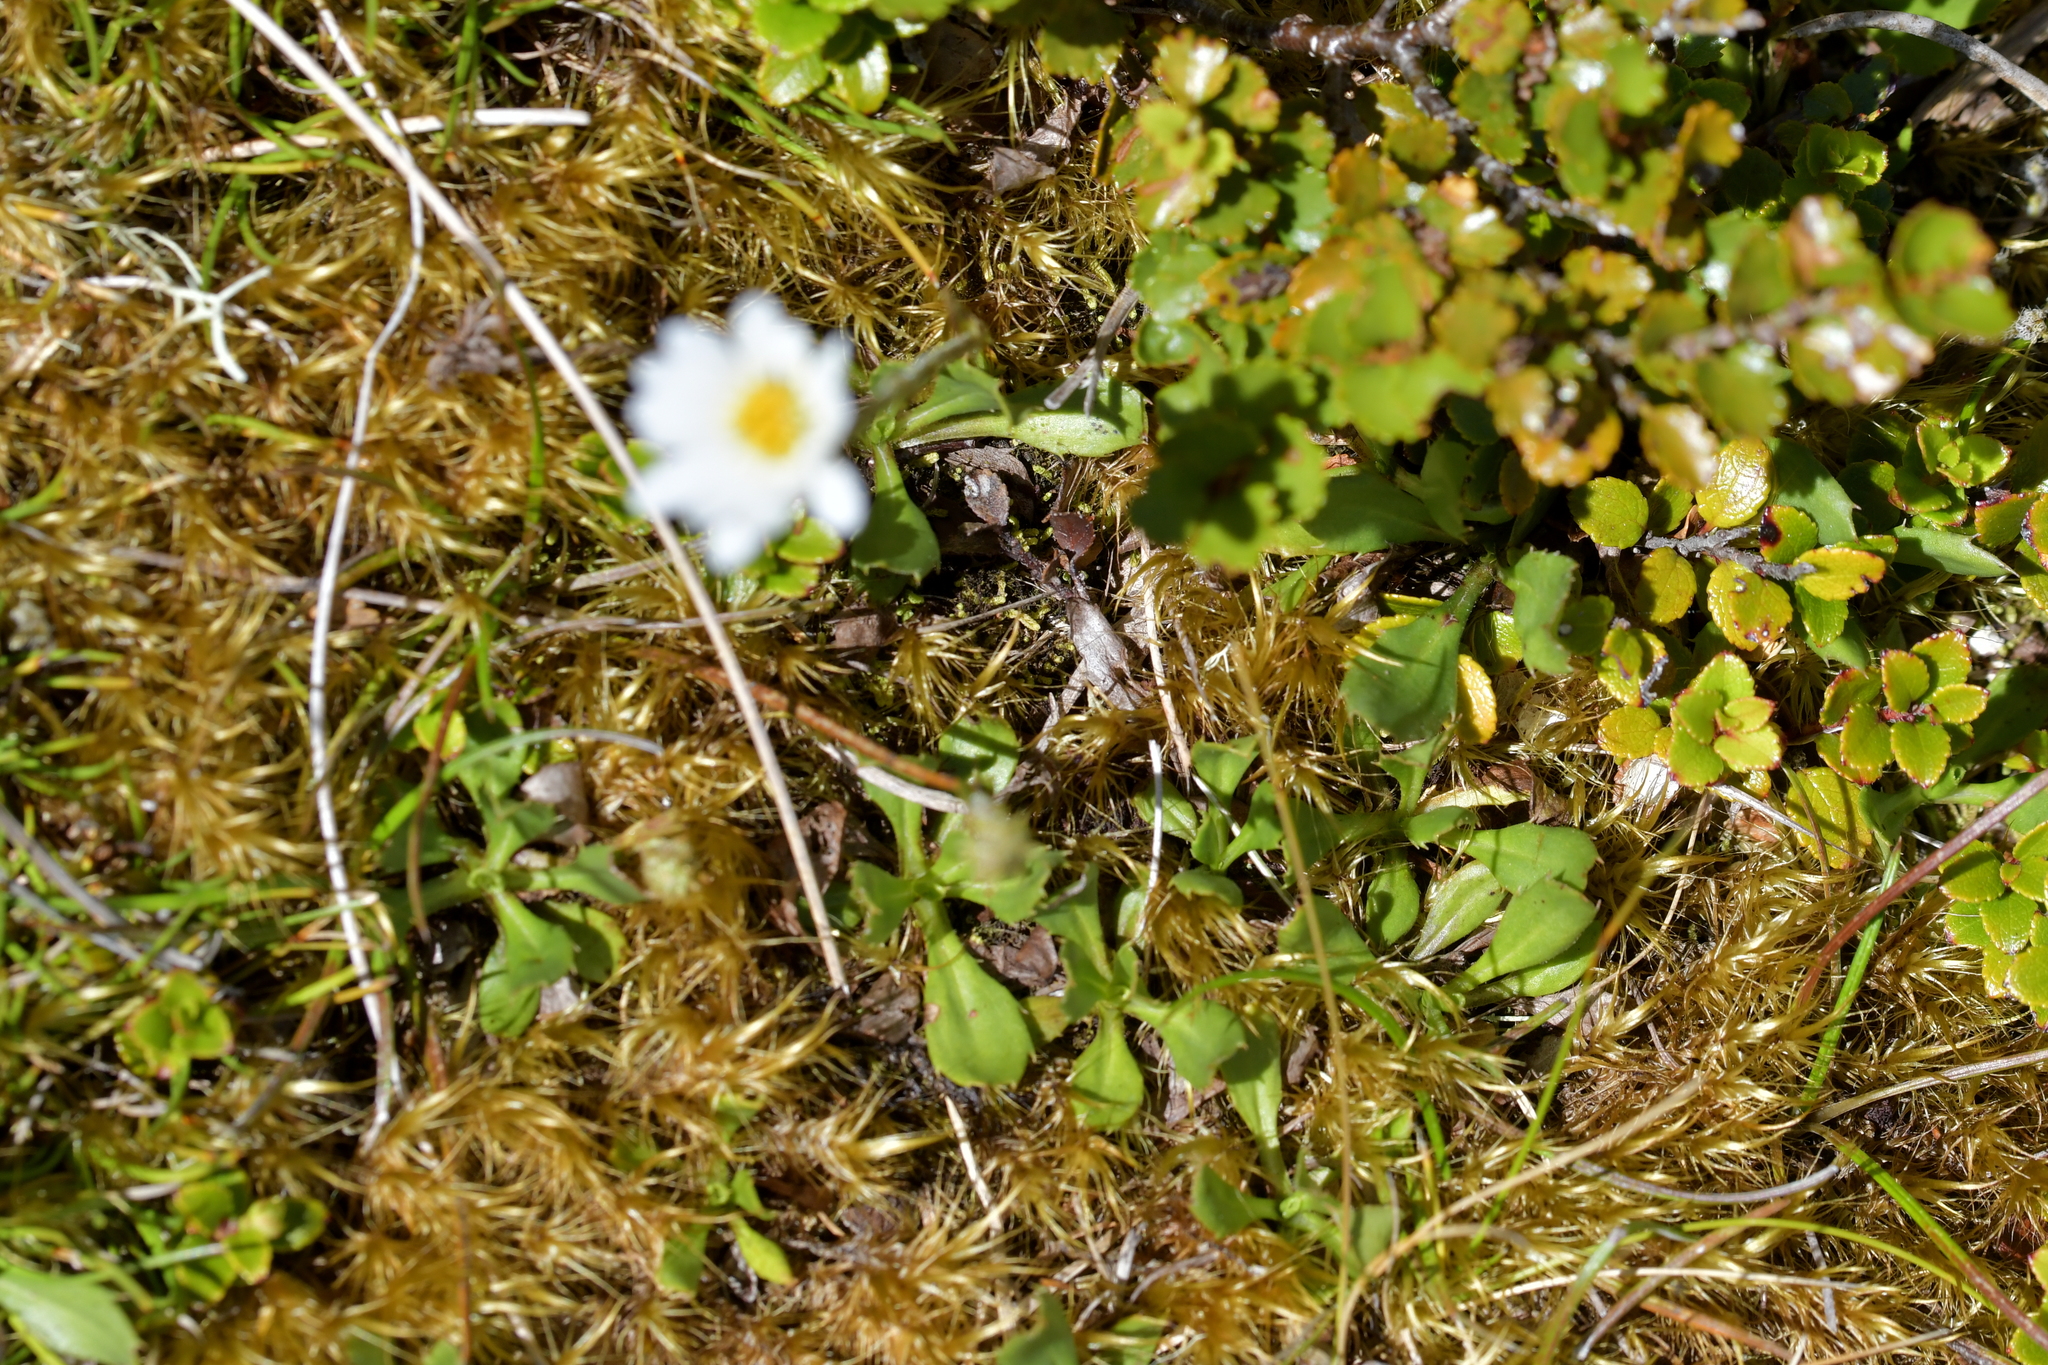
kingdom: Plantae
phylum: Tracheophyta
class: Magnoliopsida
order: Asterales
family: Asteraceae
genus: Celmisia
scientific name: Celmisia glandulosa
